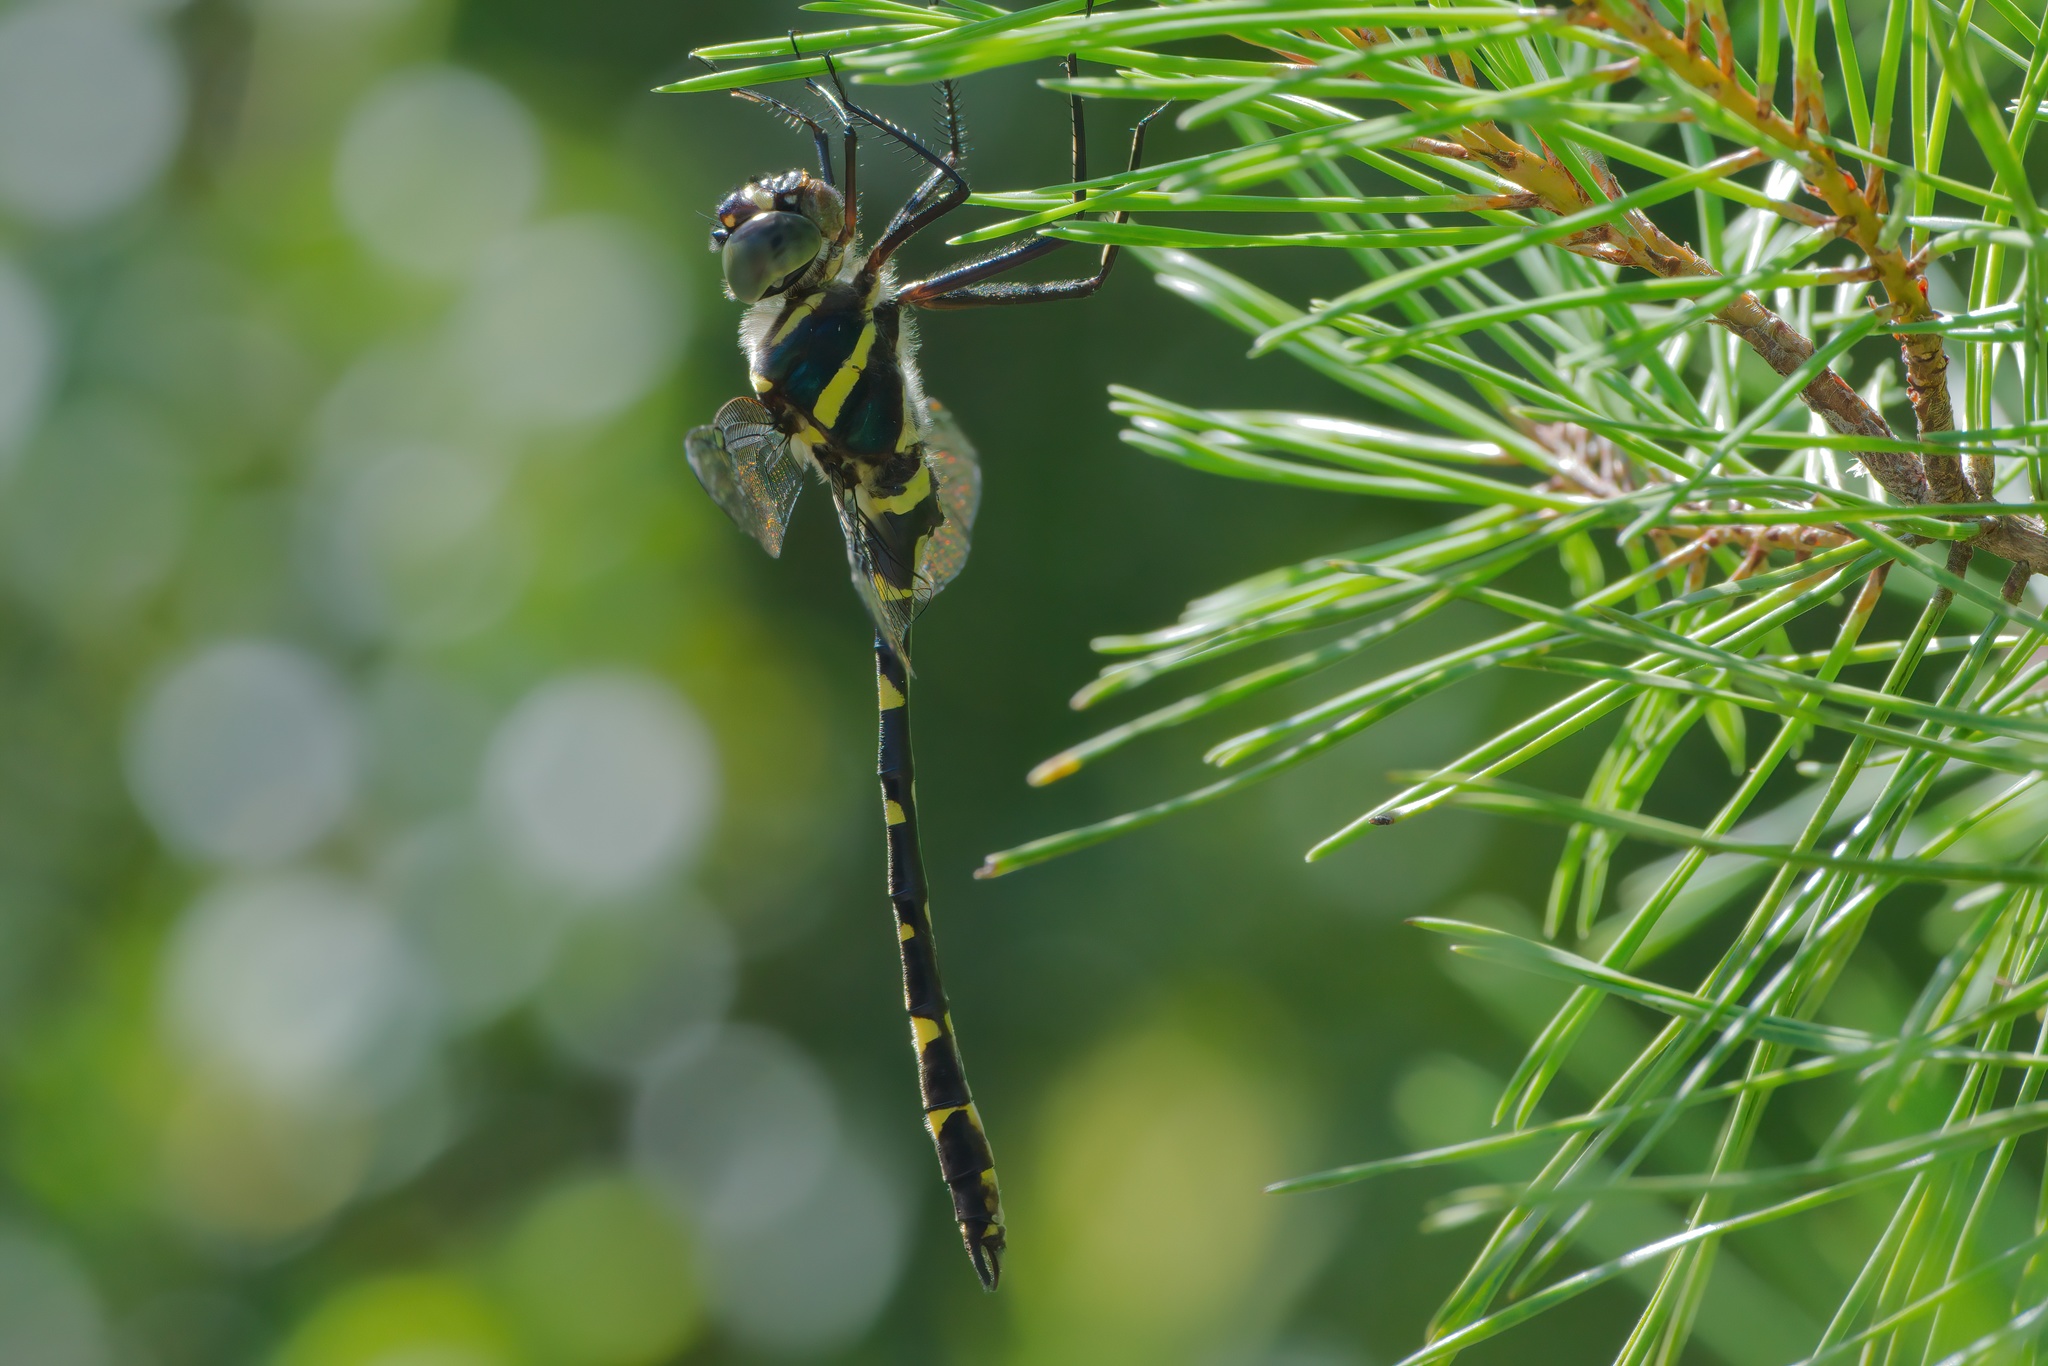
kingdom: Animalia
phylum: Arthropoda
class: Insecta
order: Odonata
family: Macromiidae
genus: Macromia
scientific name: Macromia illinoiensis
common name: Swift river cruiser
